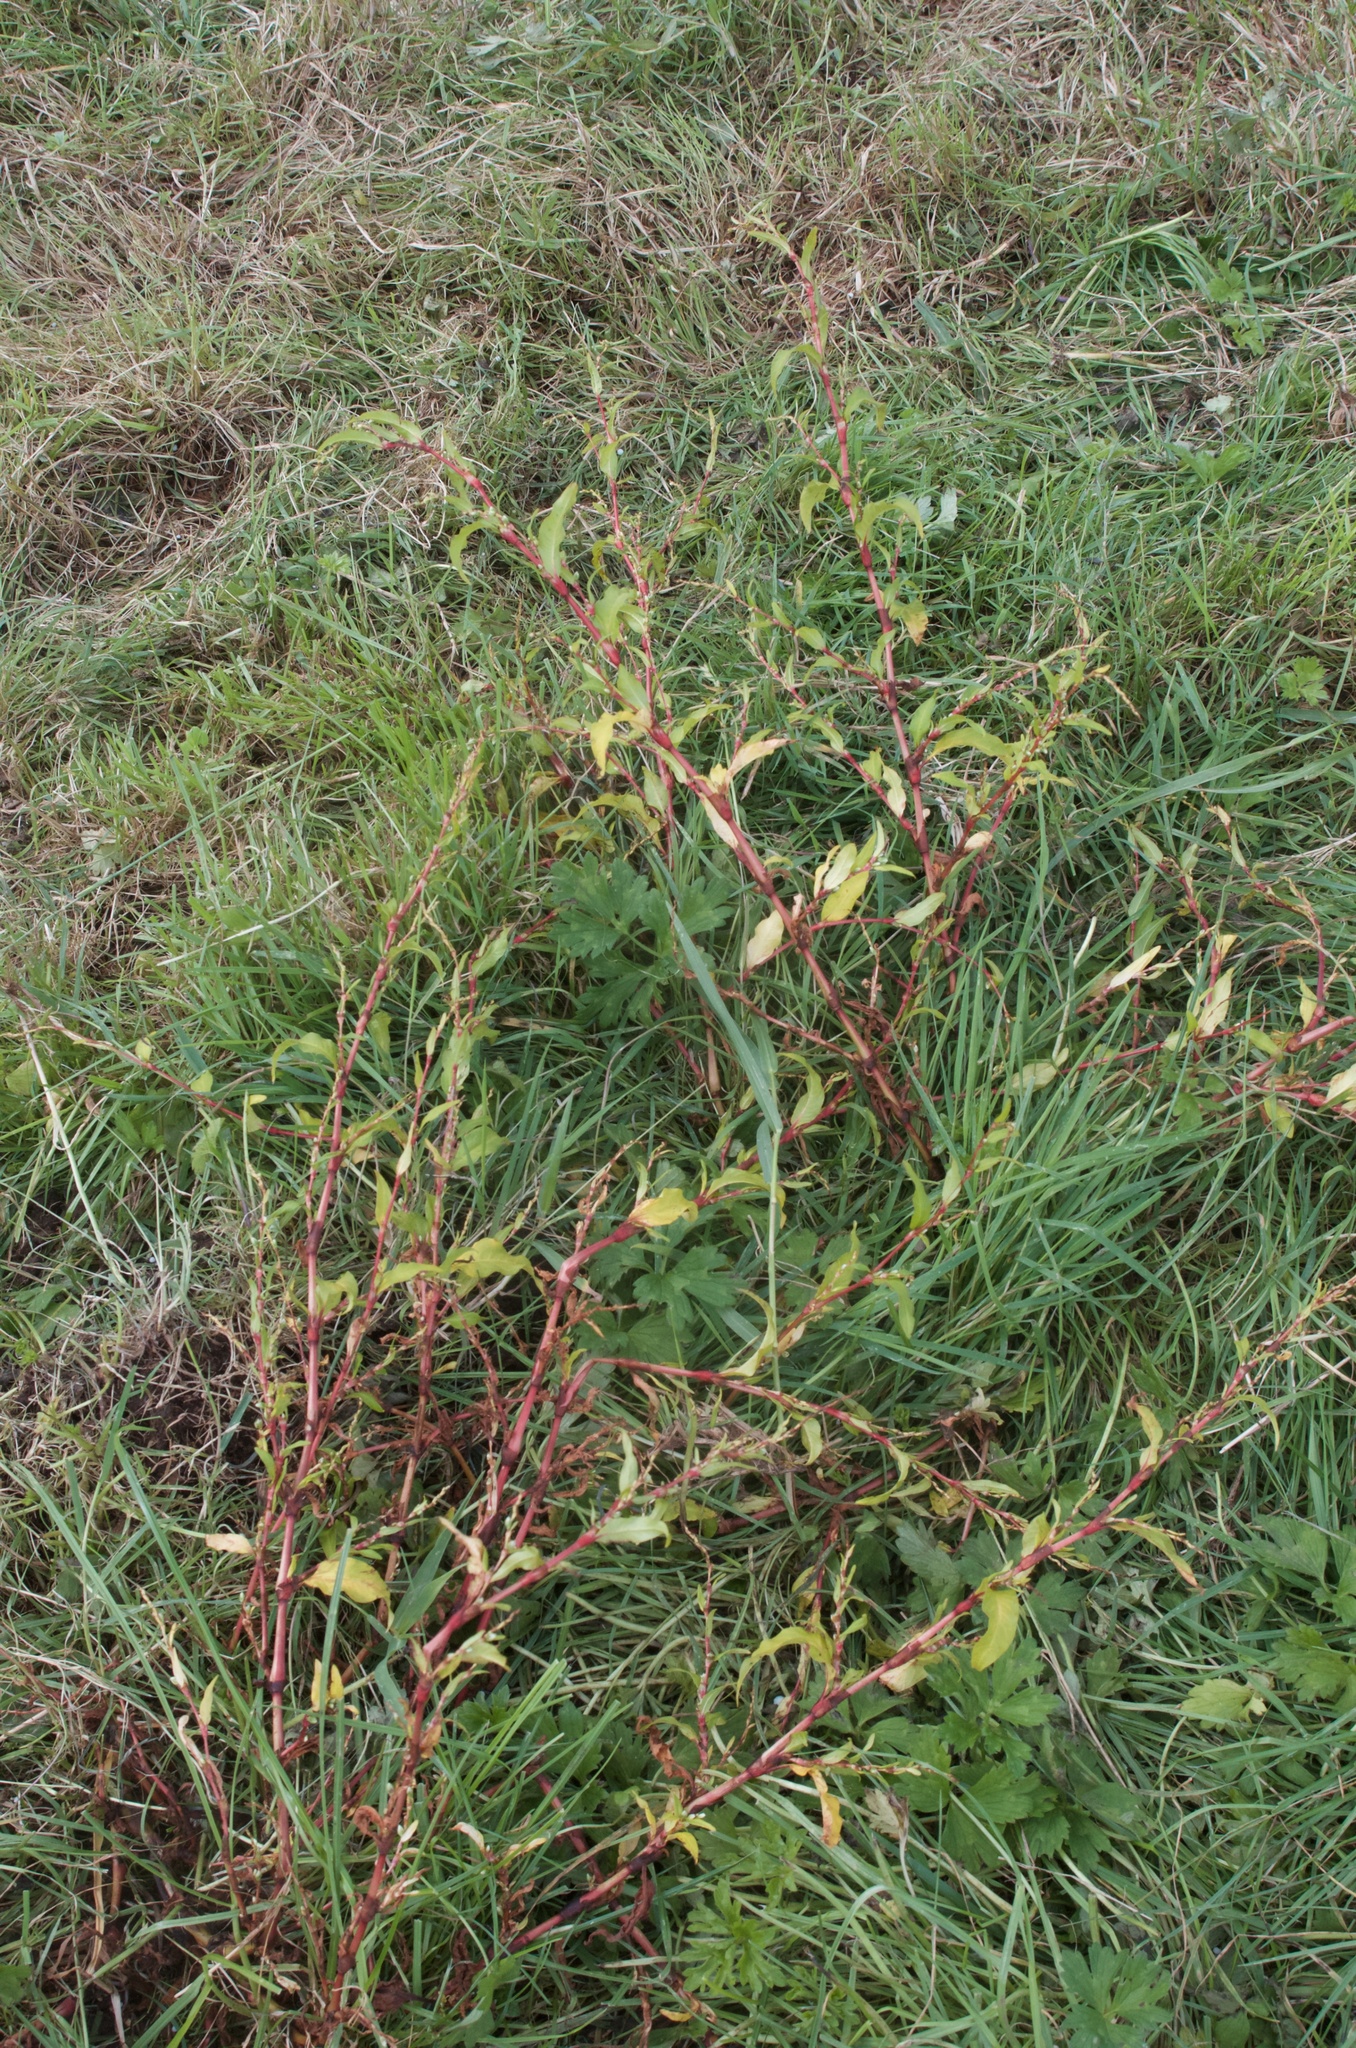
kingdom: Plantae
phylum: Tracheophyta
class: Magnoliopsida
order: Caryophyllales
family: Polygonaceae
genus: Persicaria
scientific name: Persicaria hydropiper
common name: Water-pepper
